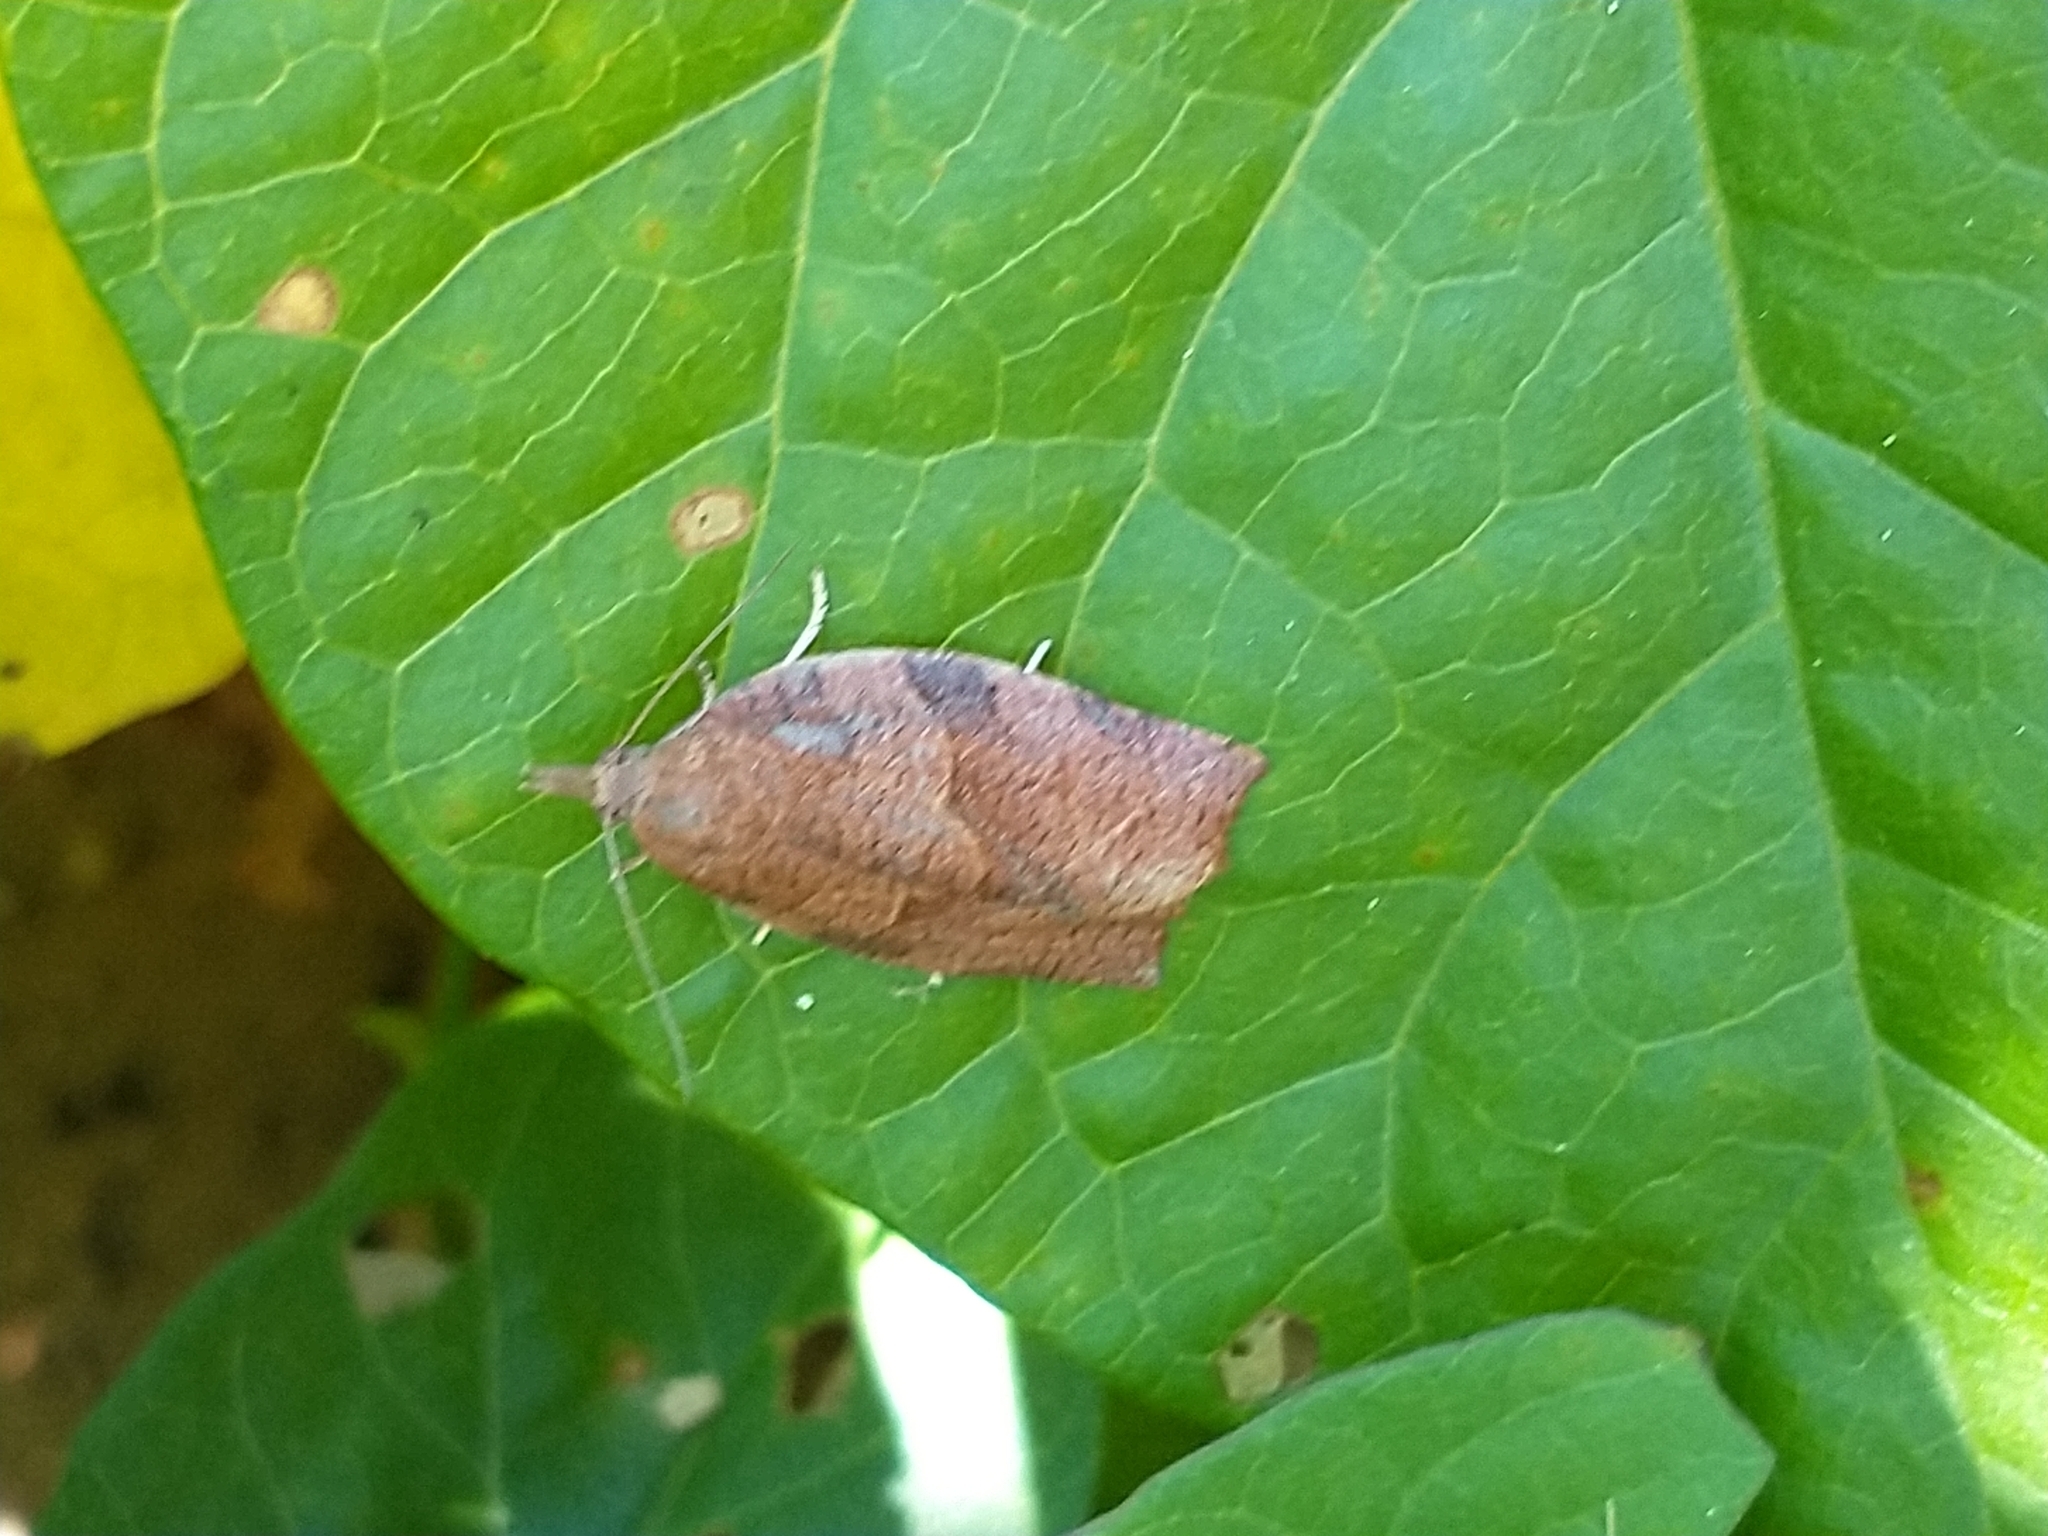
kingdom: Animalia
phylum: Arthropoda
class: Insecta
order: Lepidoptera
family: Tortricidae
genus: Pandemis
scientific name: Pandemis heparana
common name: Dark fruit-tree tortrix
